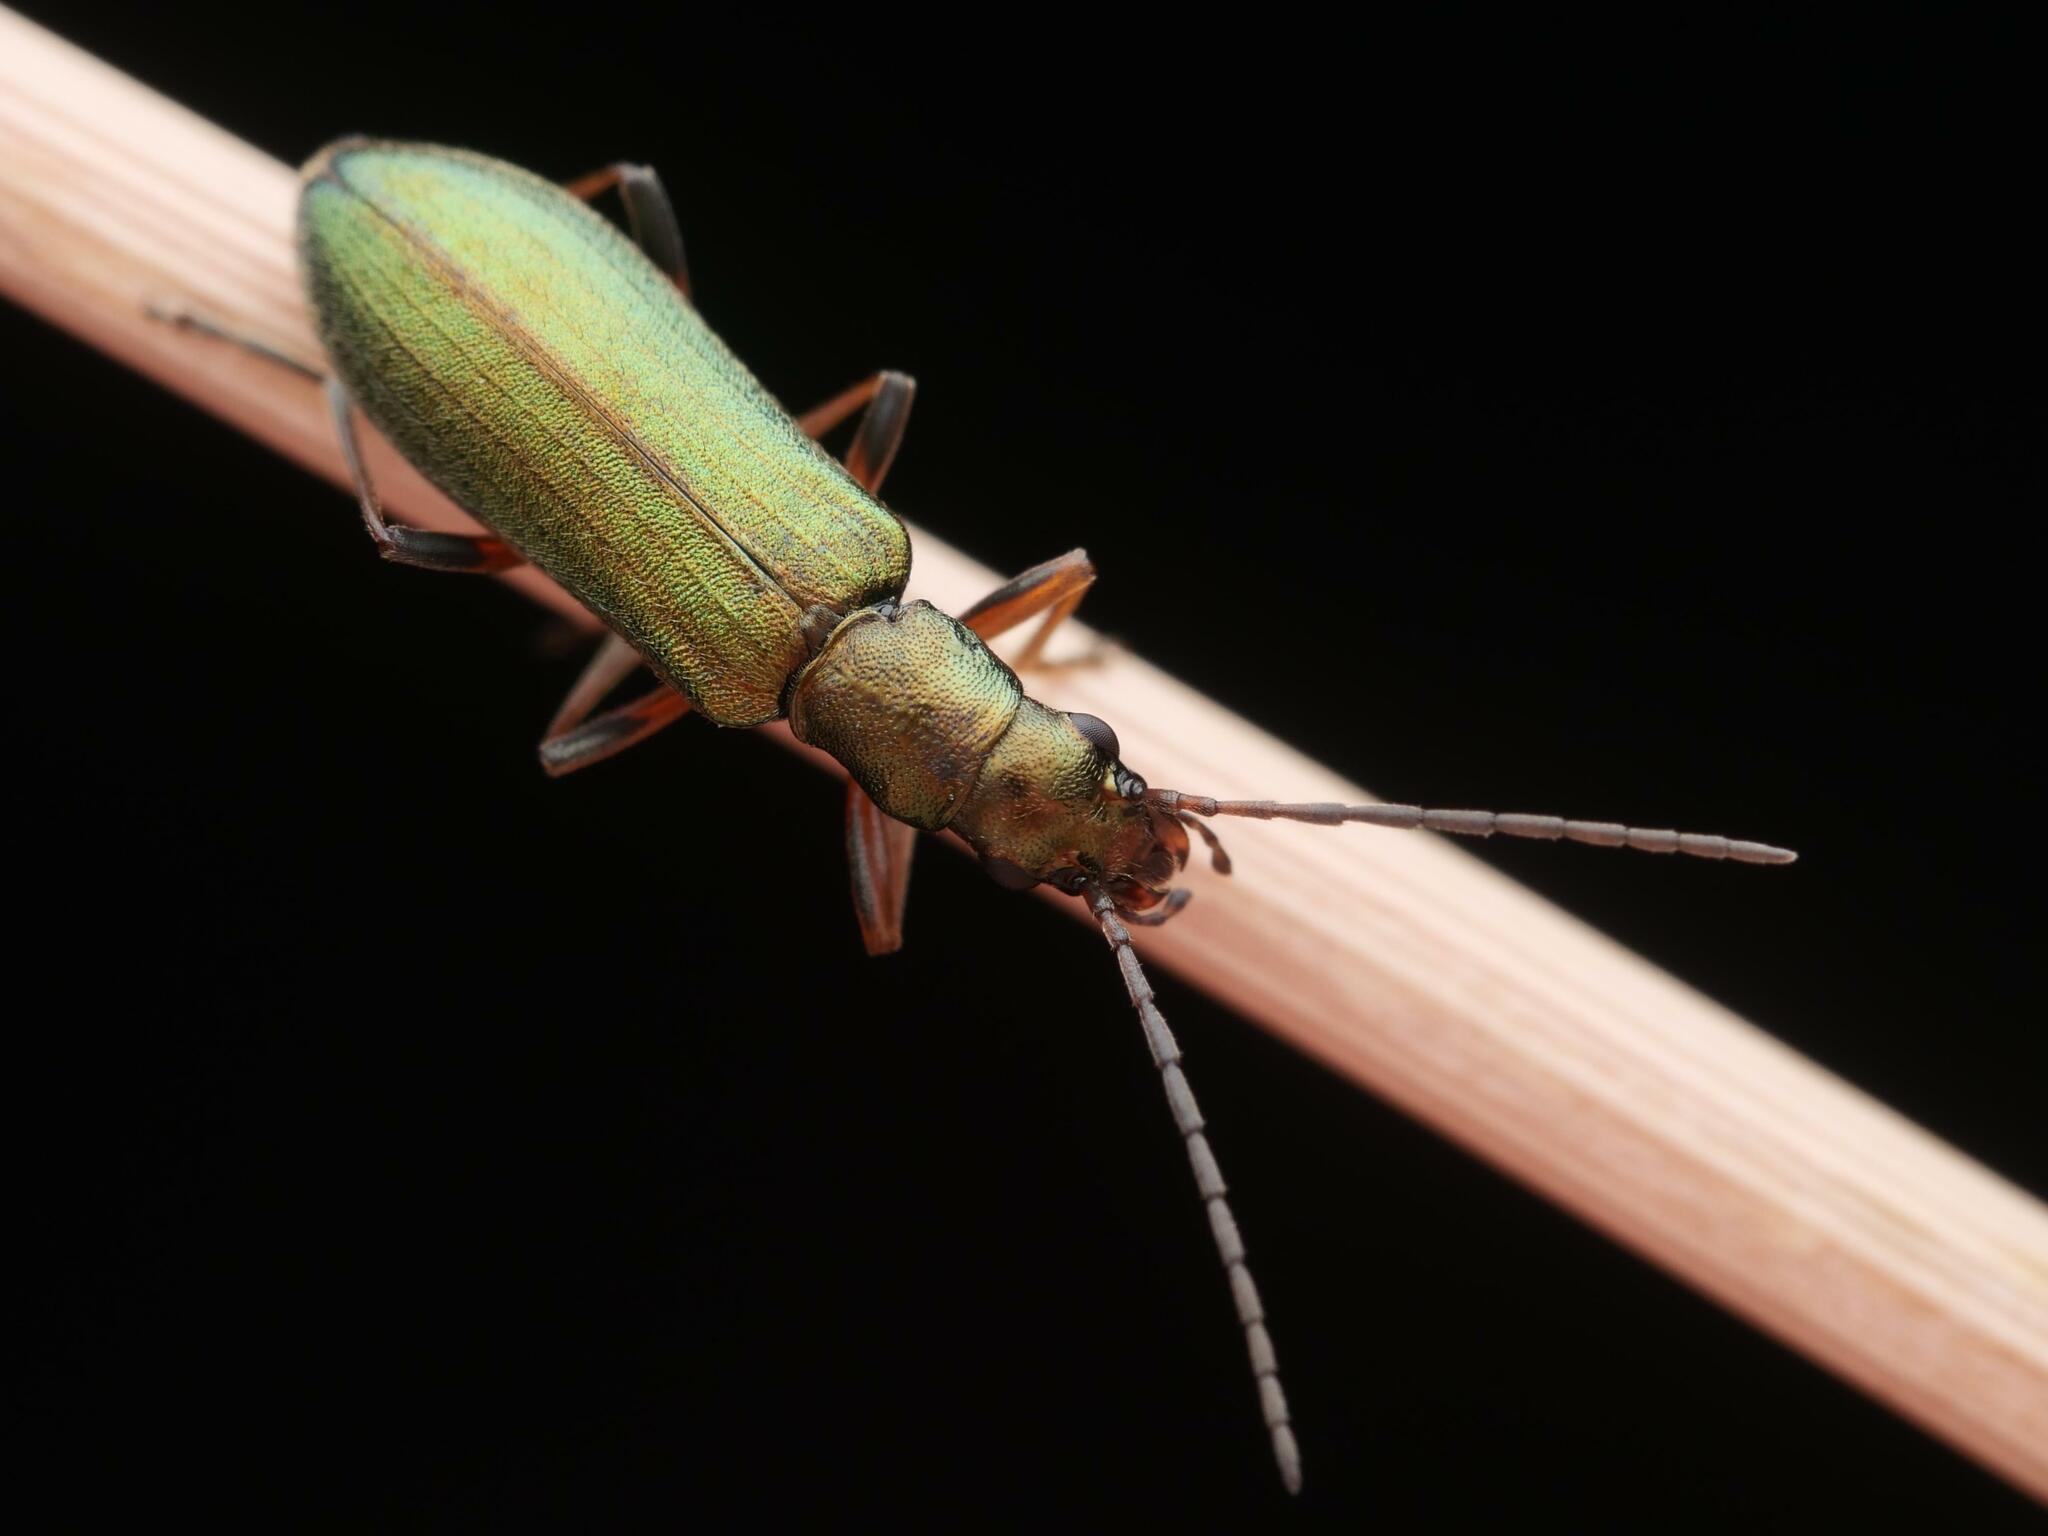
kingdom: Animalia
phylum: Arthropoda
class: Insecta
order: Coleoptera
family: Oedemeridae
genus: Chrysanthia
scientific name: Chrysanthia geniculata
